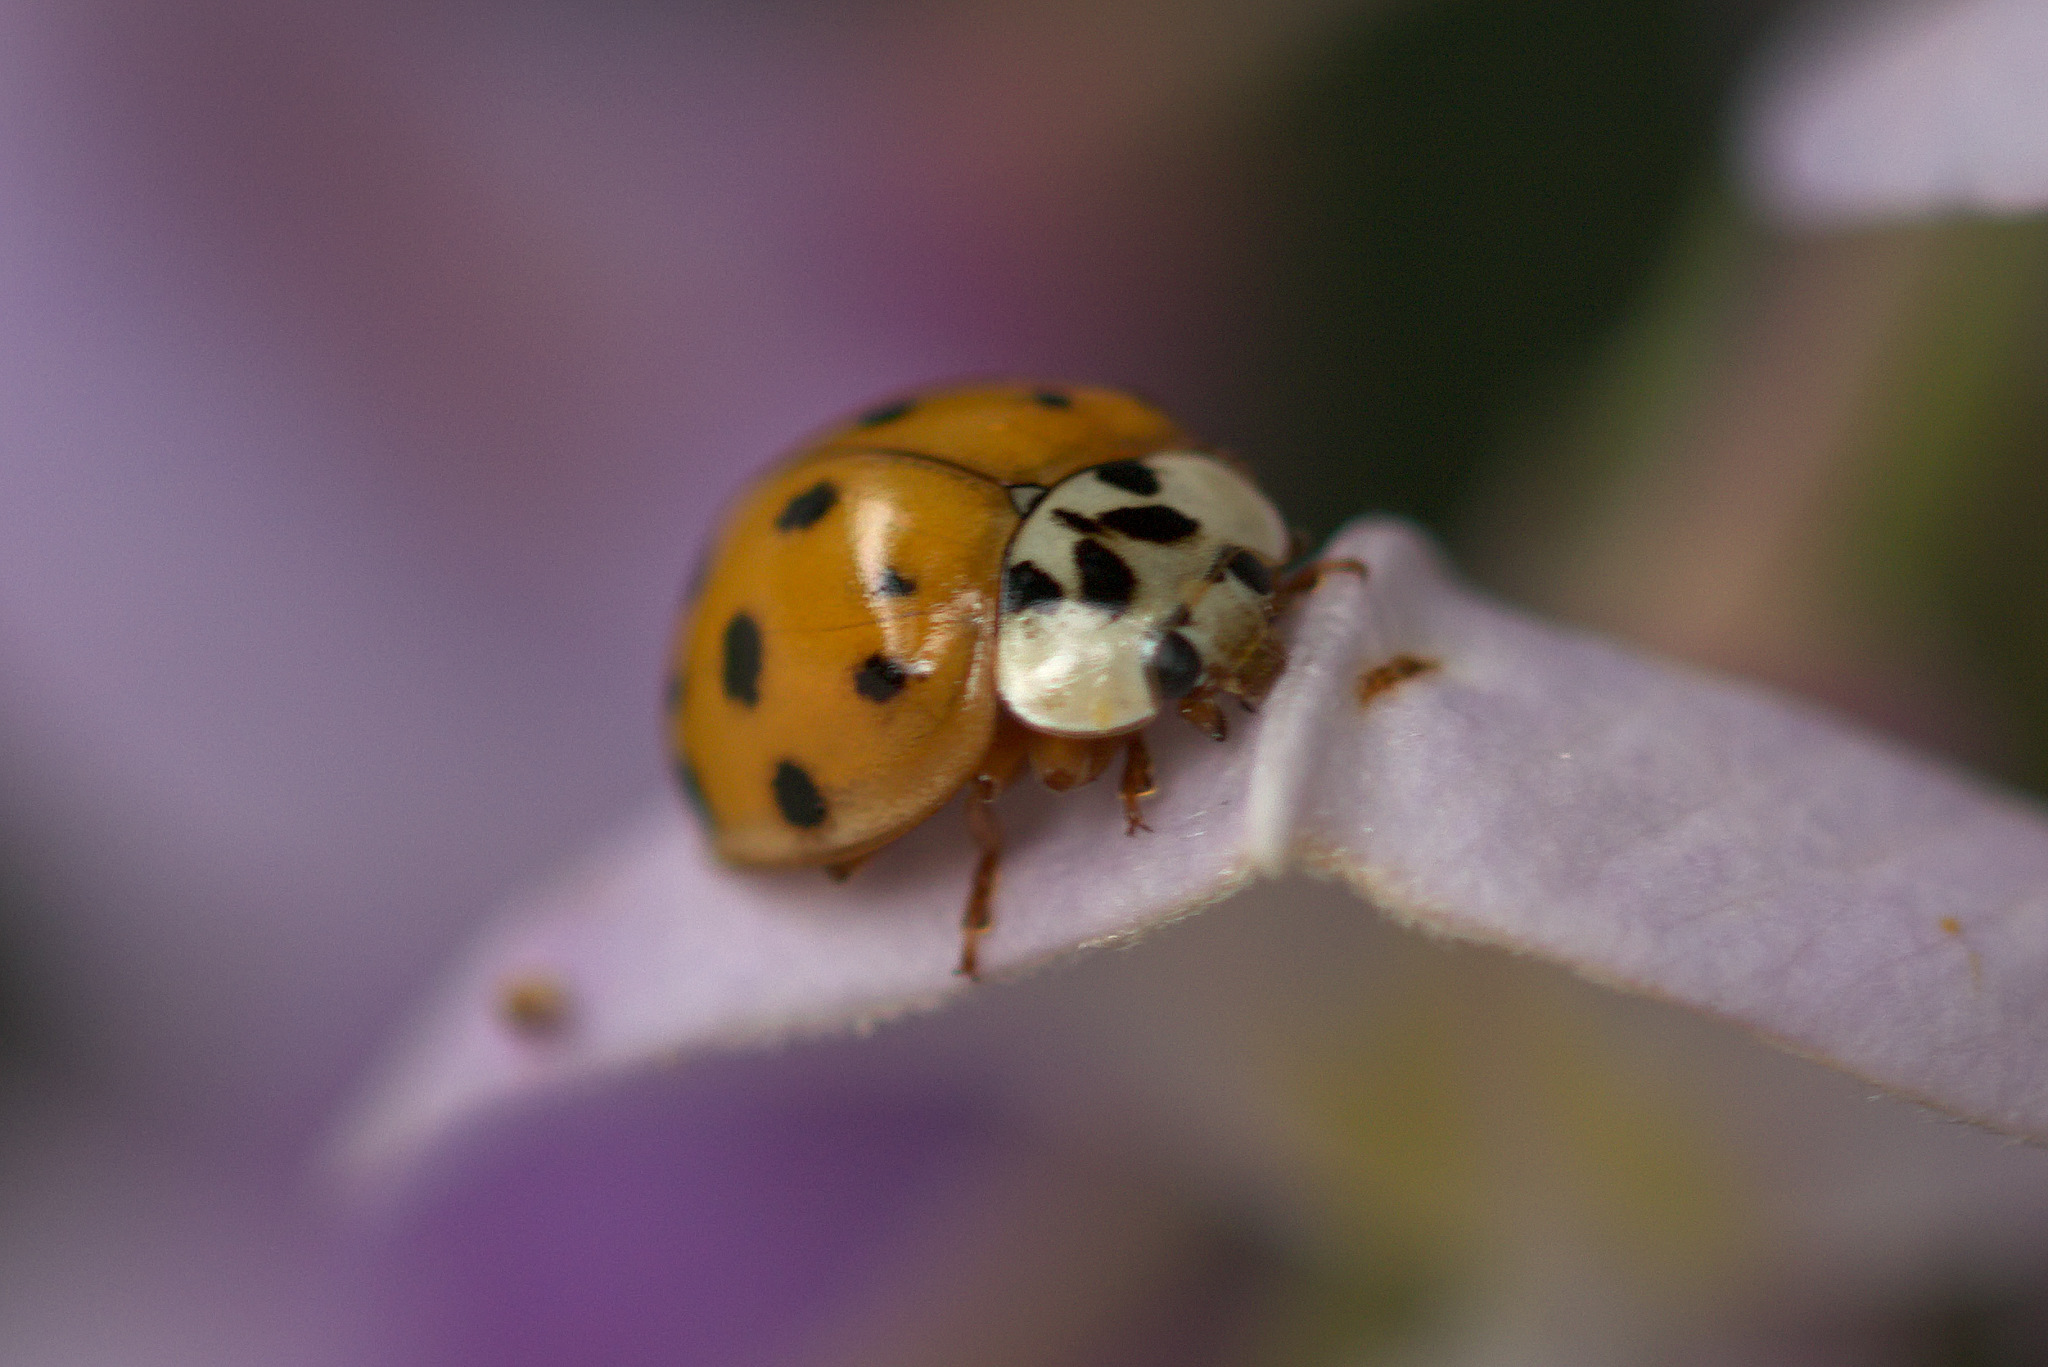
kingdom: Animalia
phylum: Arthropoda
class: Insecta
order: Coleoptera
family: Coccinellidae
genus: Harmonia
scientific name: Harmonia axyridis
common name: Harlequin ladybird
